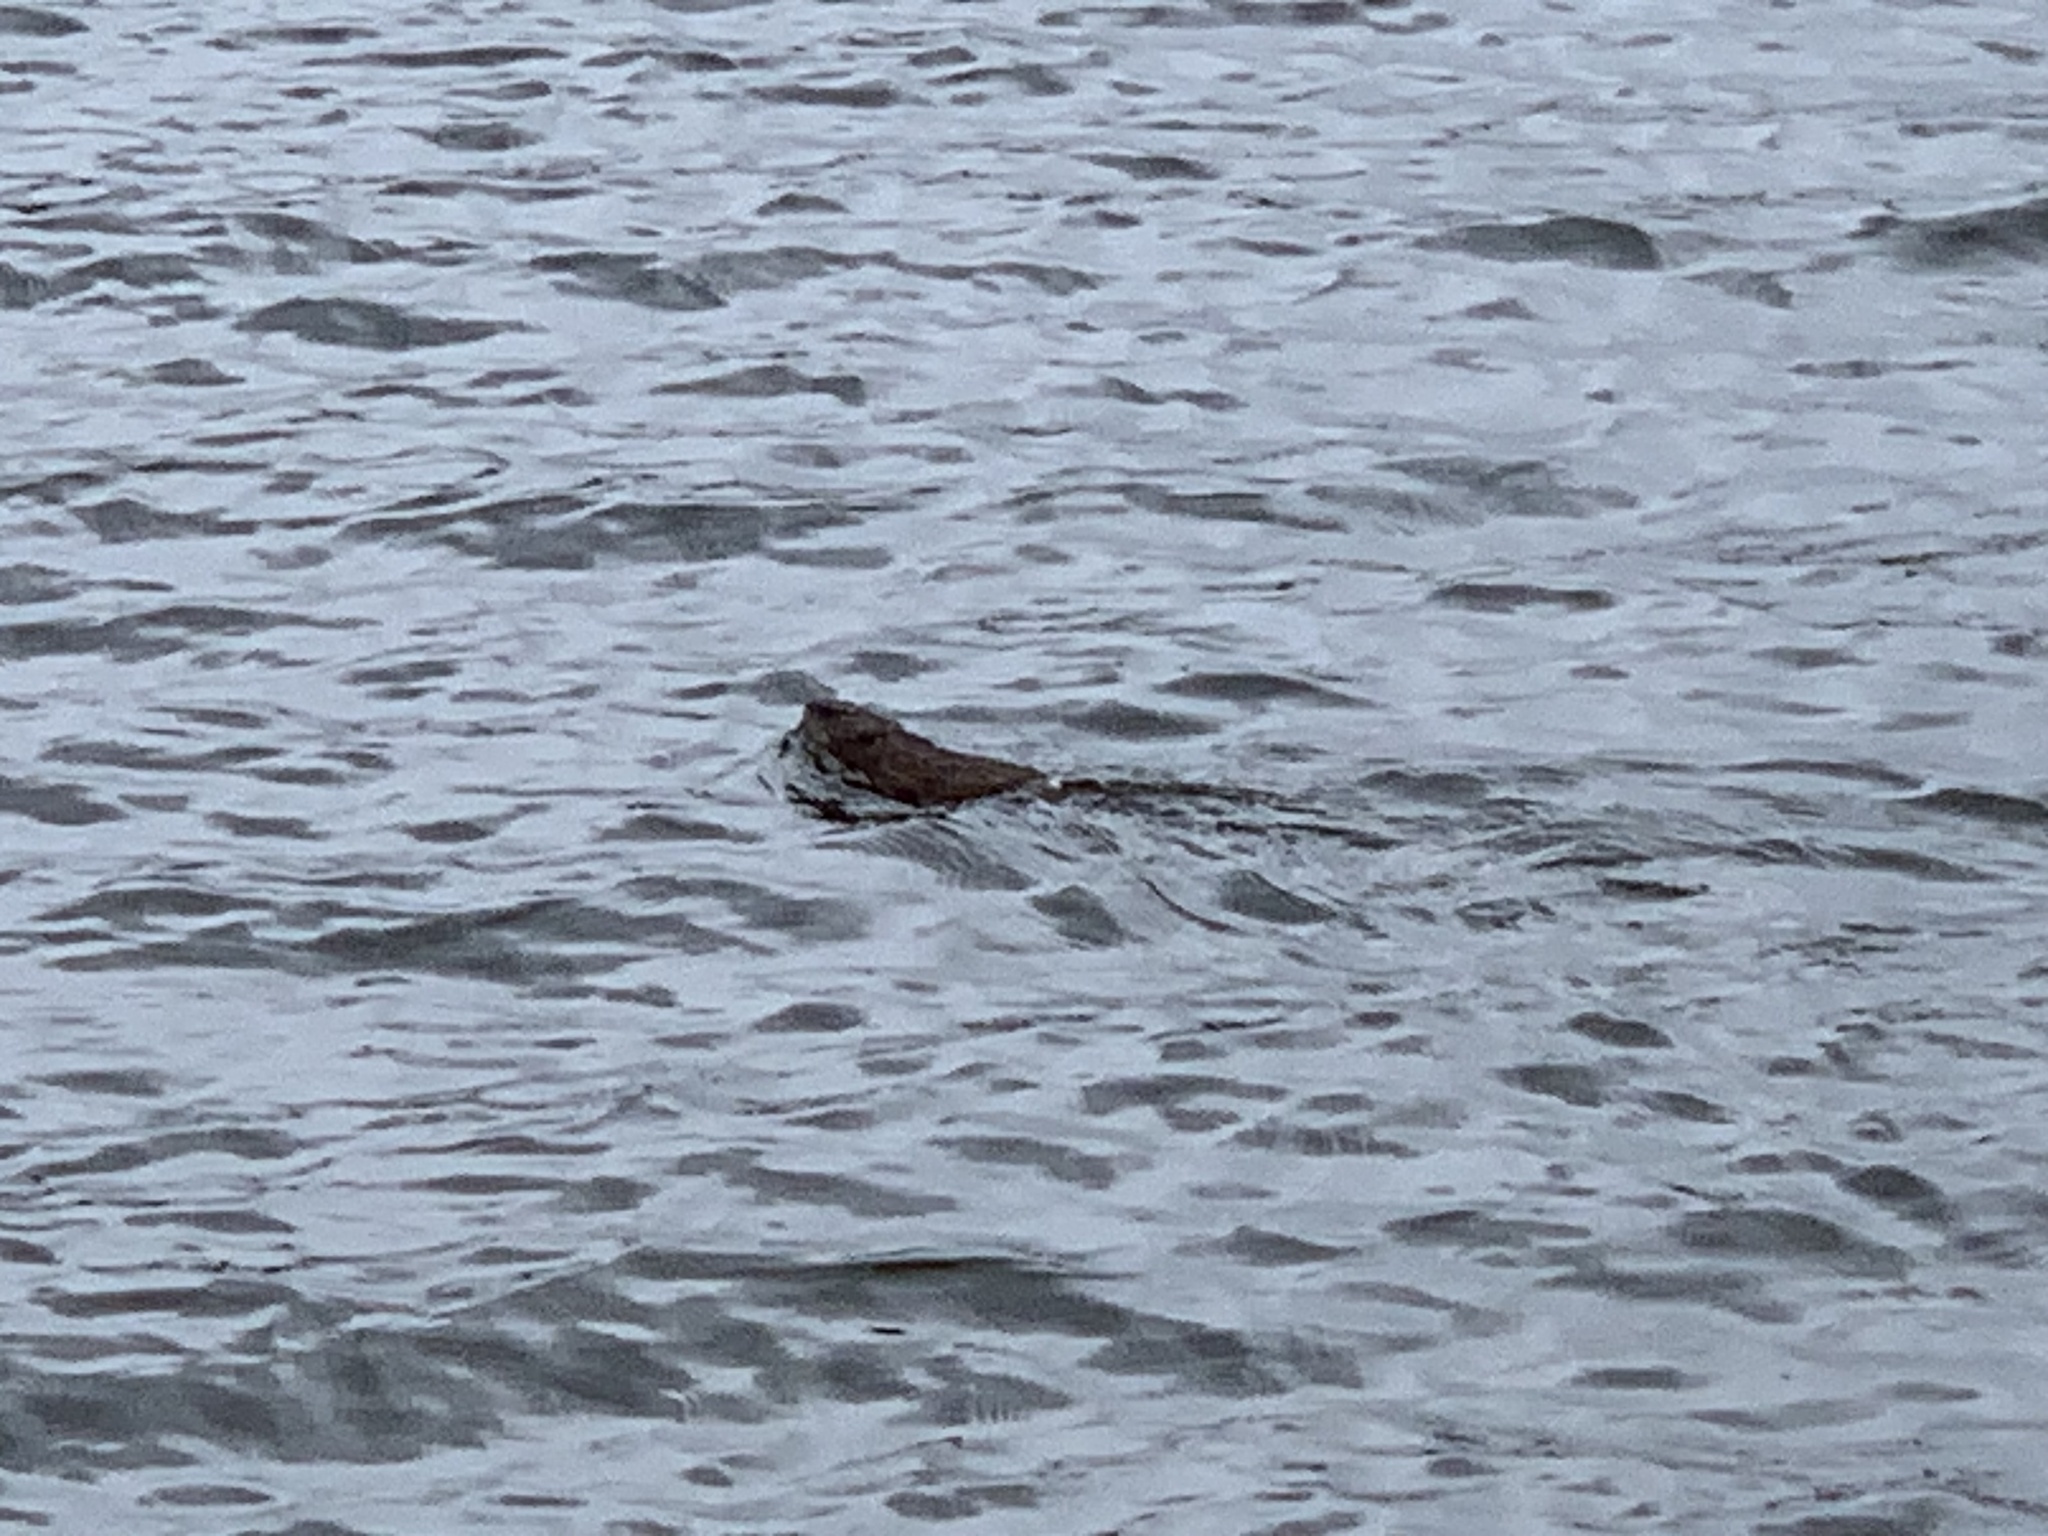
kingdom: Animalia
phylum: Chordata
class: Mammalia
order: Rodentia
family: Cricetidae
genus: Ondatra
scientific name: Ondatra zibethicus
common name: Muskrat
